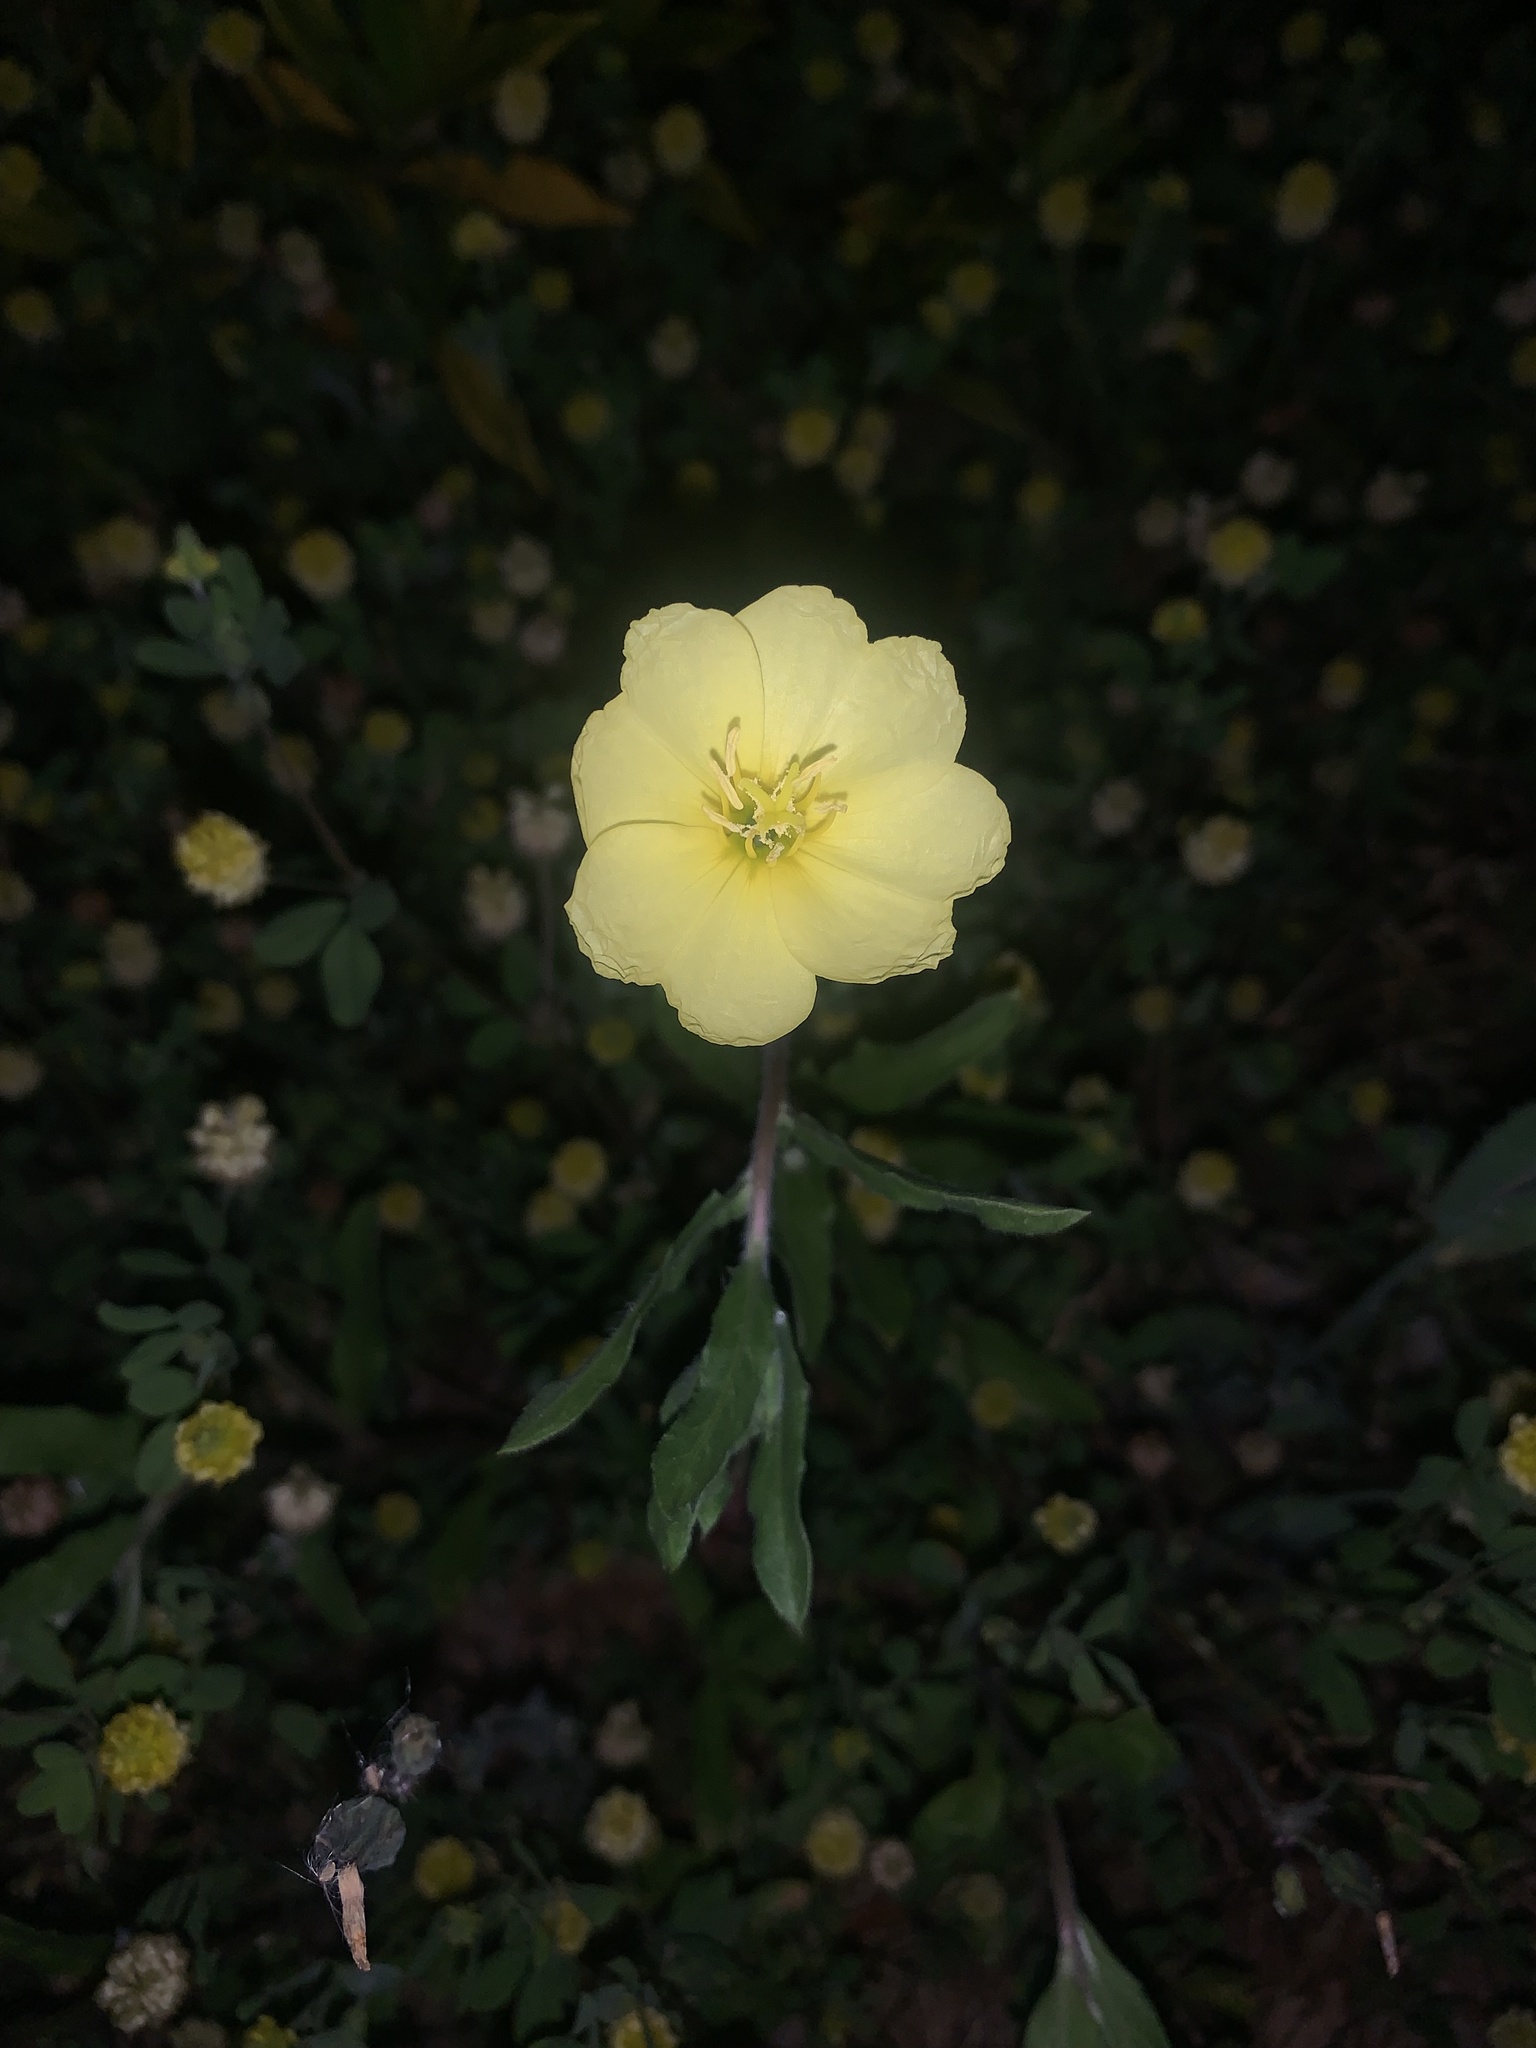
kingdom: Plantae
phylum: Tracheophyta
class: Magnoliopsida
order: Myrtales
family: Onagraceae
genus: Oenothera
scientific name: Oenothera biennis
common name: Common evening-primrose
